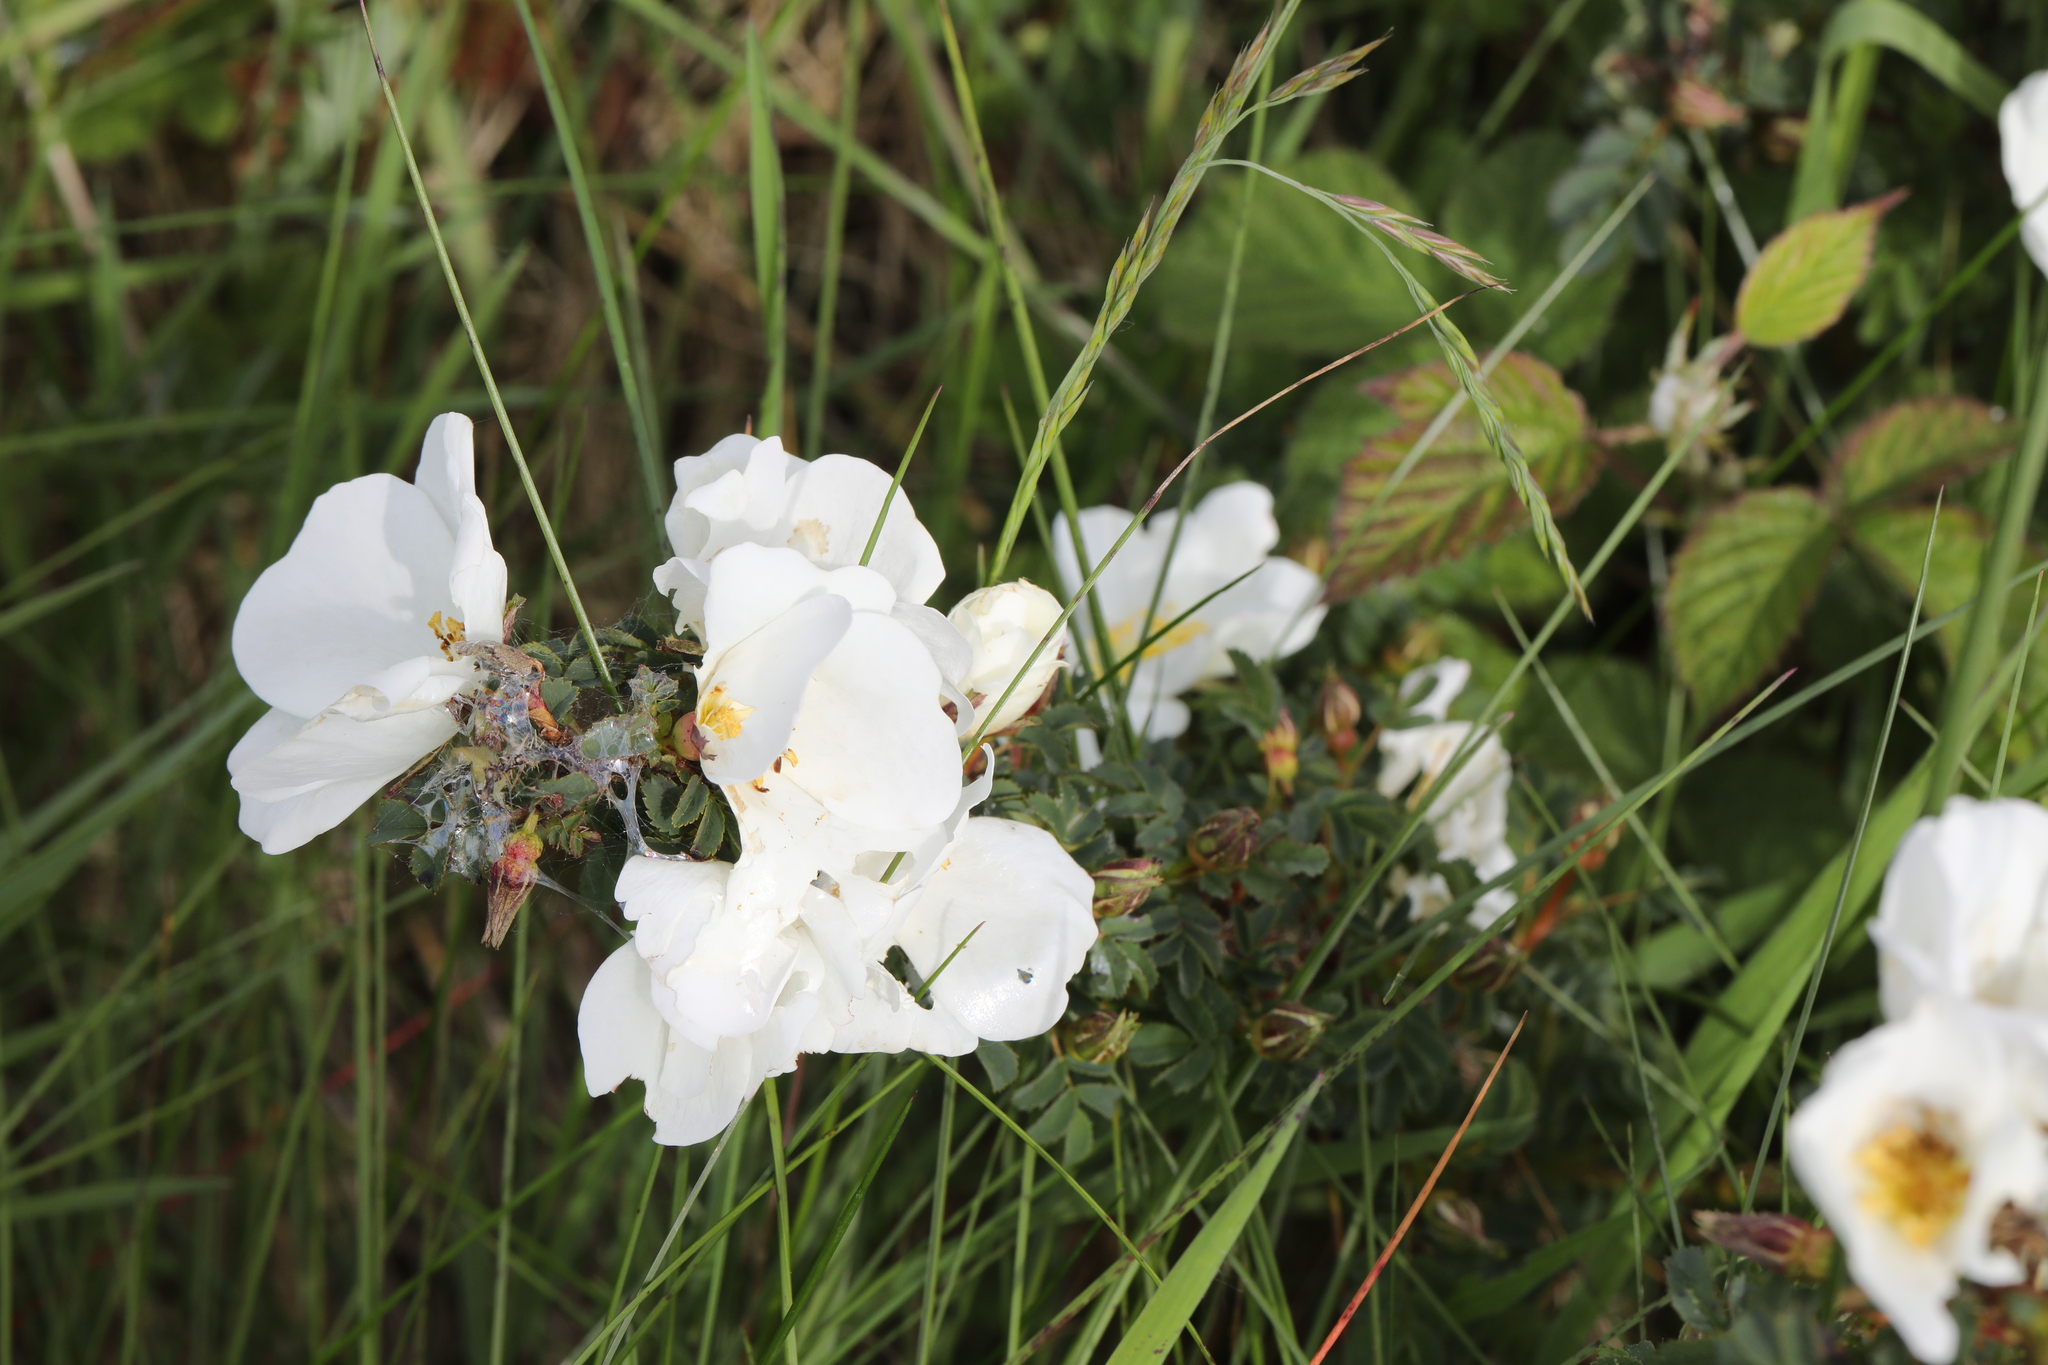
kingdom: Plantae
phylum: Tracheophyta
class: Magnoliopsida
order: Rosales
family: Rosaceae
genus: Rosa
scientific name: Rosa spinosissima
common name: Burnet rose
